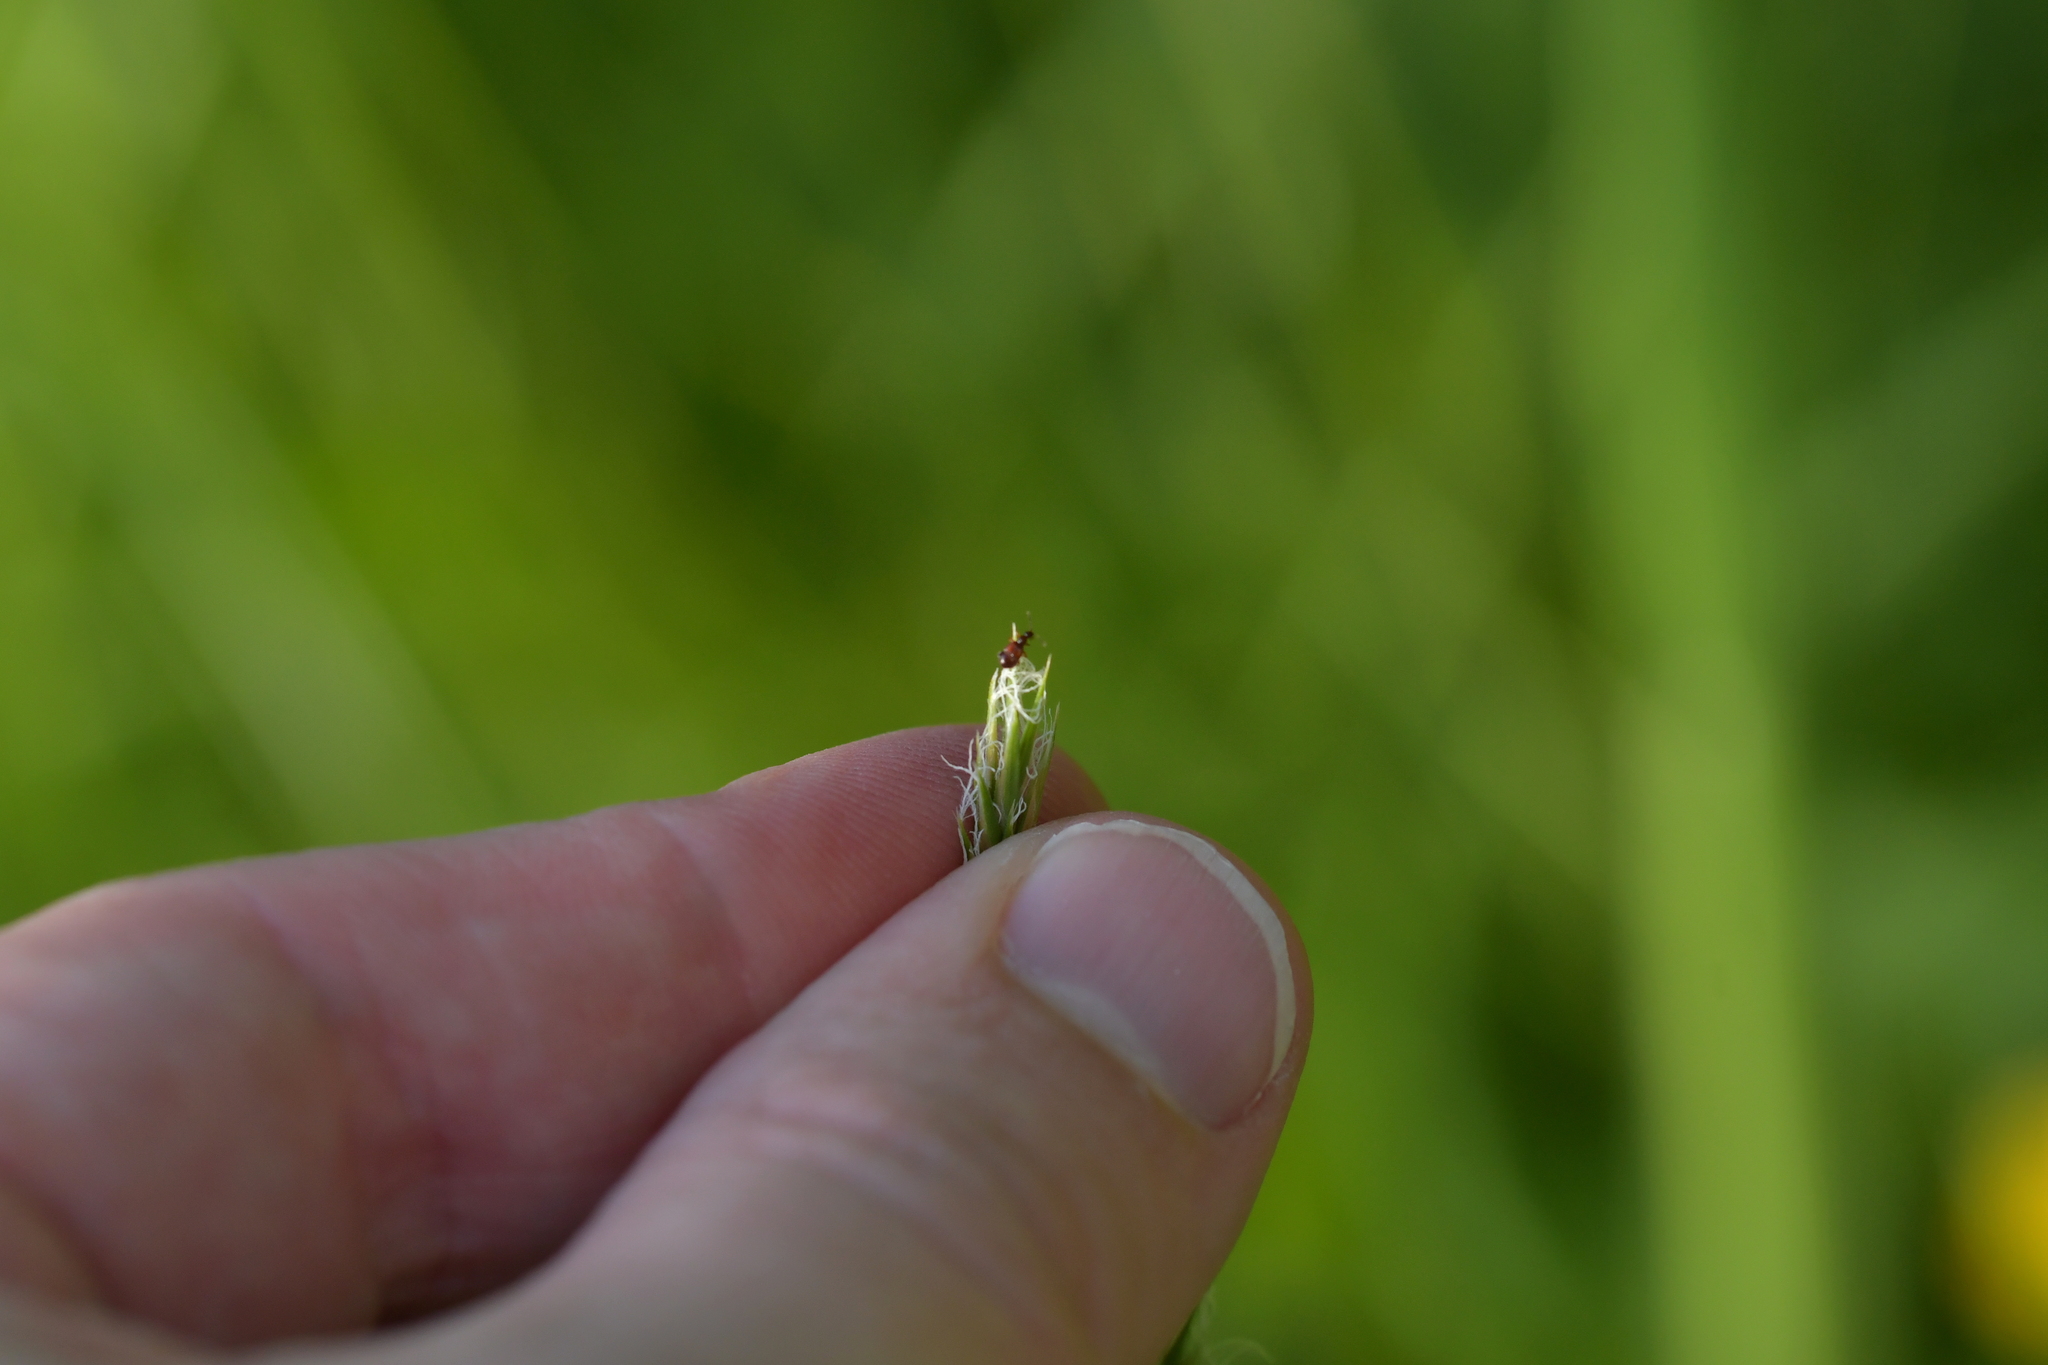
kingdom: Animalia
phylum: Arthropoda
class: Insecta
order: Coleoptera
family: Staphylinidae
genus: Pselaphophus
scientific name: Pselaphophus atriventris
